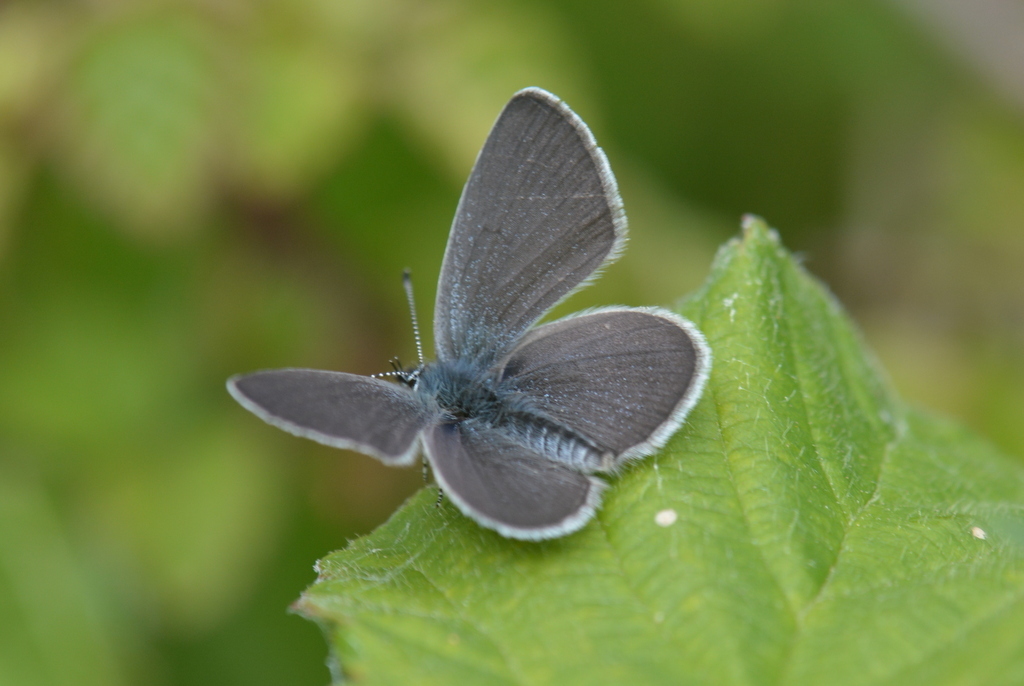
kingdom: Animalia
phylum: Arthropoda
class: Insecta
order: Lepidoptera
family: Lycaenidae
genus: Cupido
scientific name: Cupido minimus
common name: Small blue
